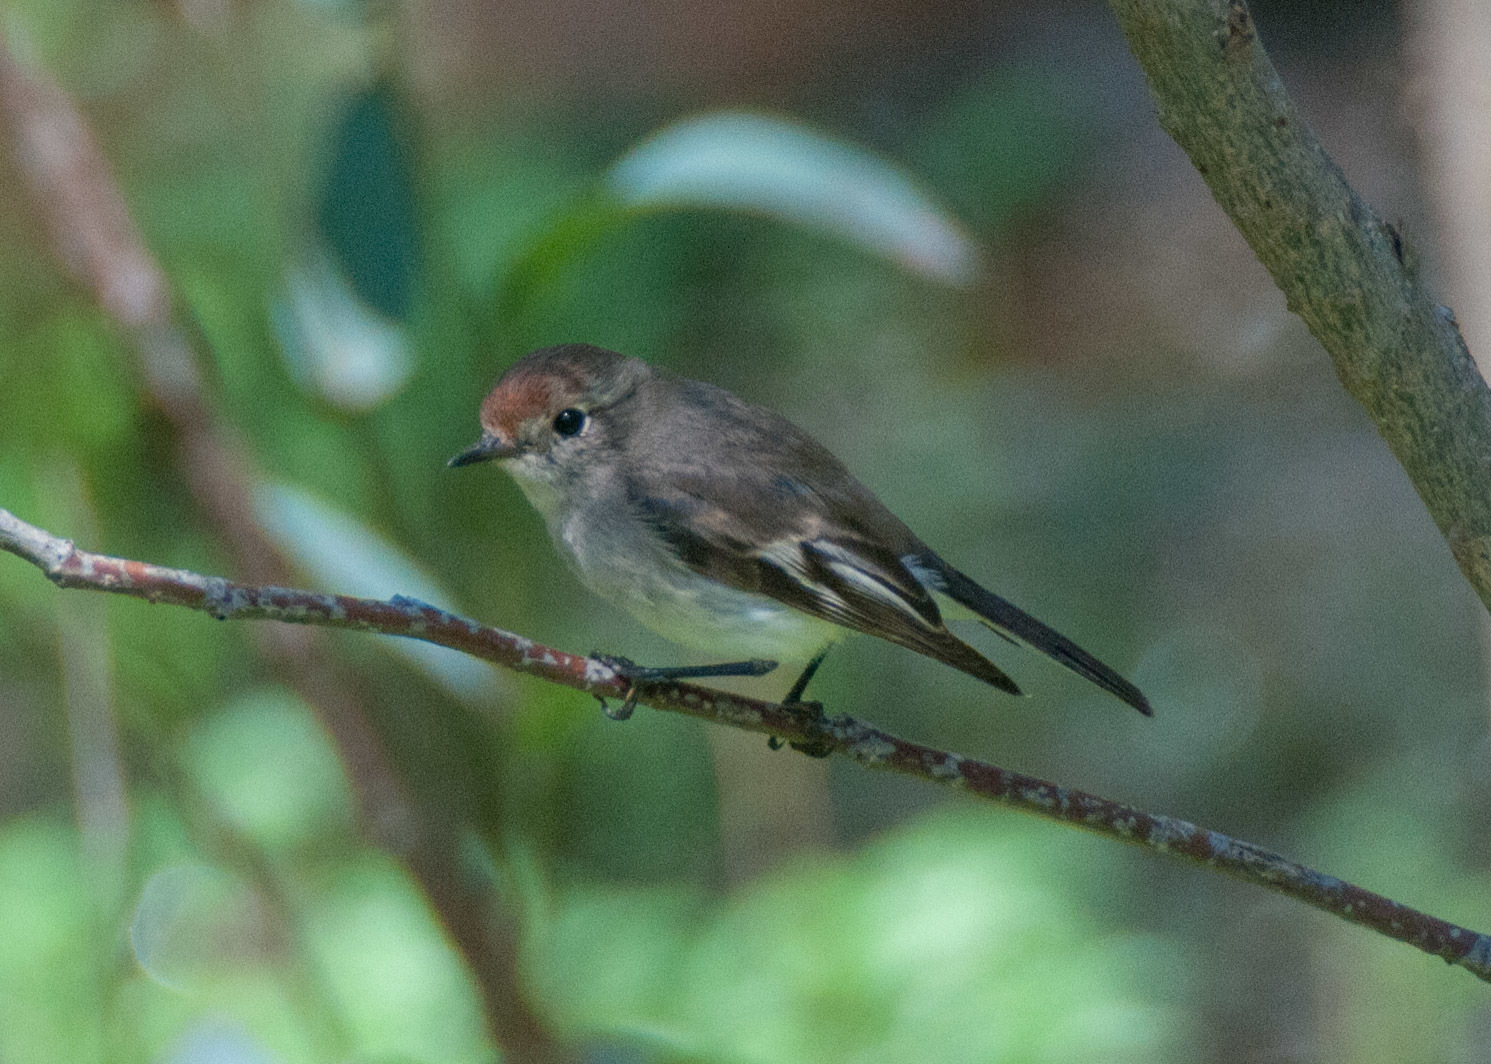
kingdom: Animalia
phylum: Chordata
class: Aves
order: Passeriformes
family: Petroicidae
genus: Petroica
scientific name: Petroica goodenovii
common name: Red-capped robin
